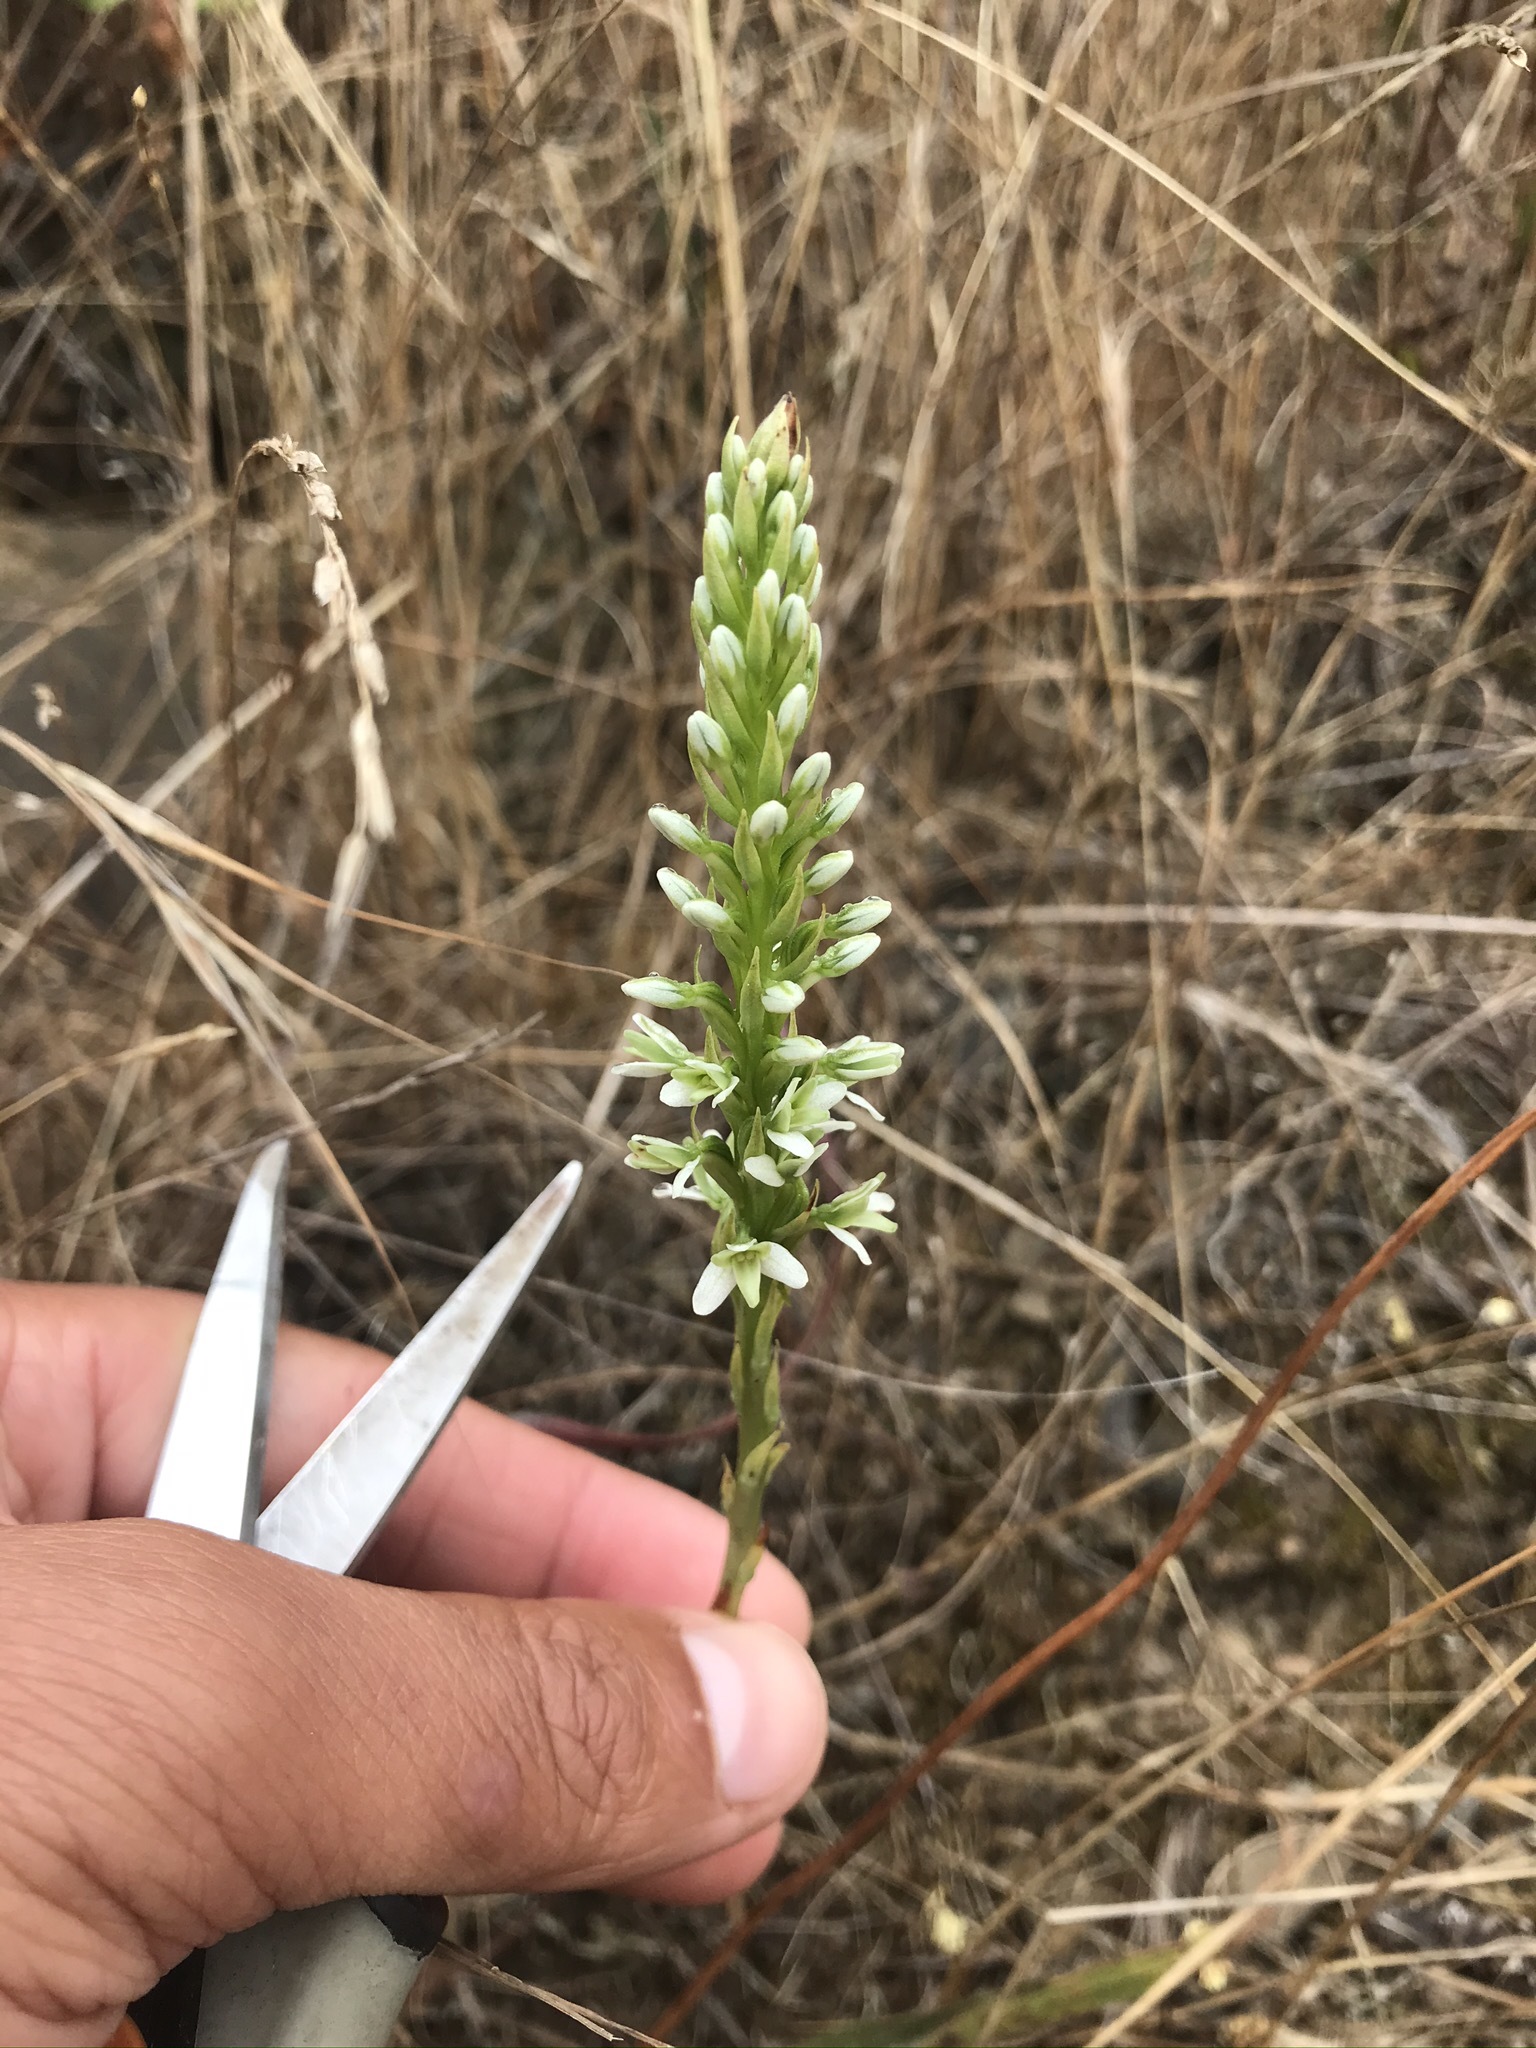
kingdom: Plantae
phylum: Tracheophyta
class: Liliopsida
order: Asparagales
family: Orchidaceae
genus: Platanthera
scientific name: Platanthera elegans
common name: Coast piperia
